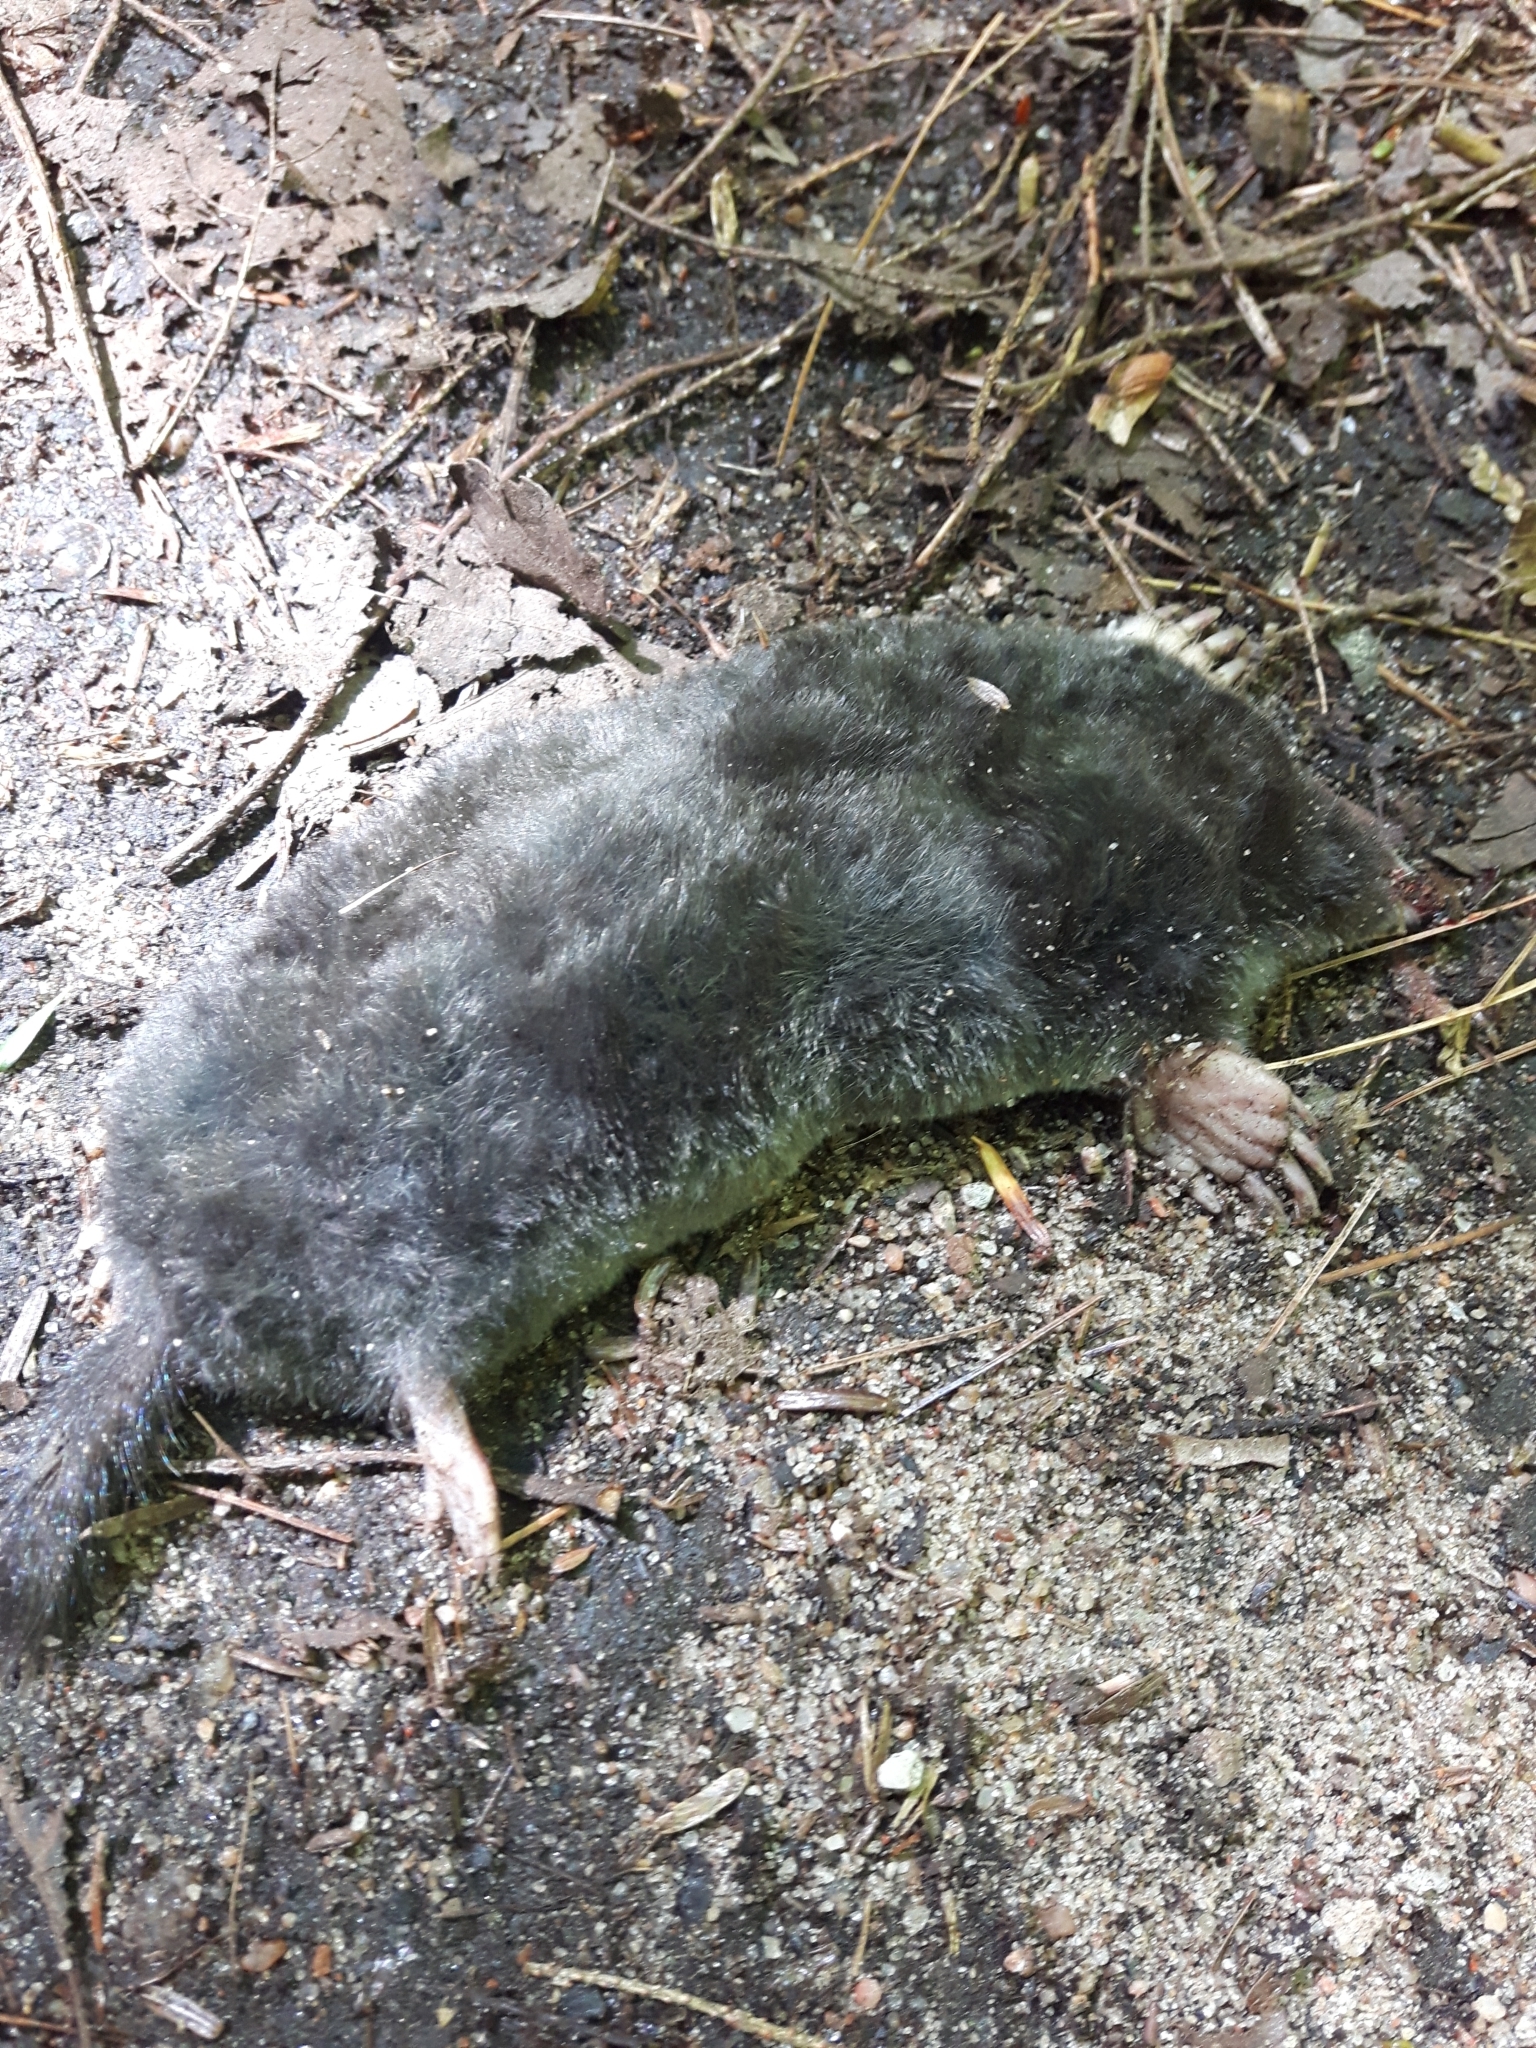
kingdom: Animalia
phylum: Chordata
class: Mammalia
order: Soricomorpha
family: Talpidae
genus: Parascalops
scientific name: Parascalops breweri
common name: Hairy-tailed mole
